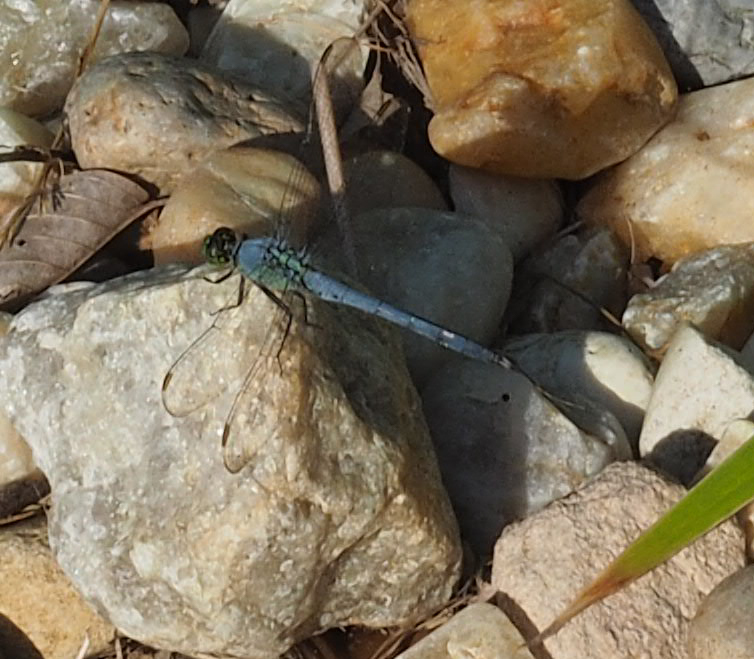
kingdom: Animalia
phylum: Arthropoda
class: Insecta
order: Odonata
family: Libellulidae
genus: Erythemis
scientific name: Erythemis simplicicollis
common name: Eastern pondhawk
